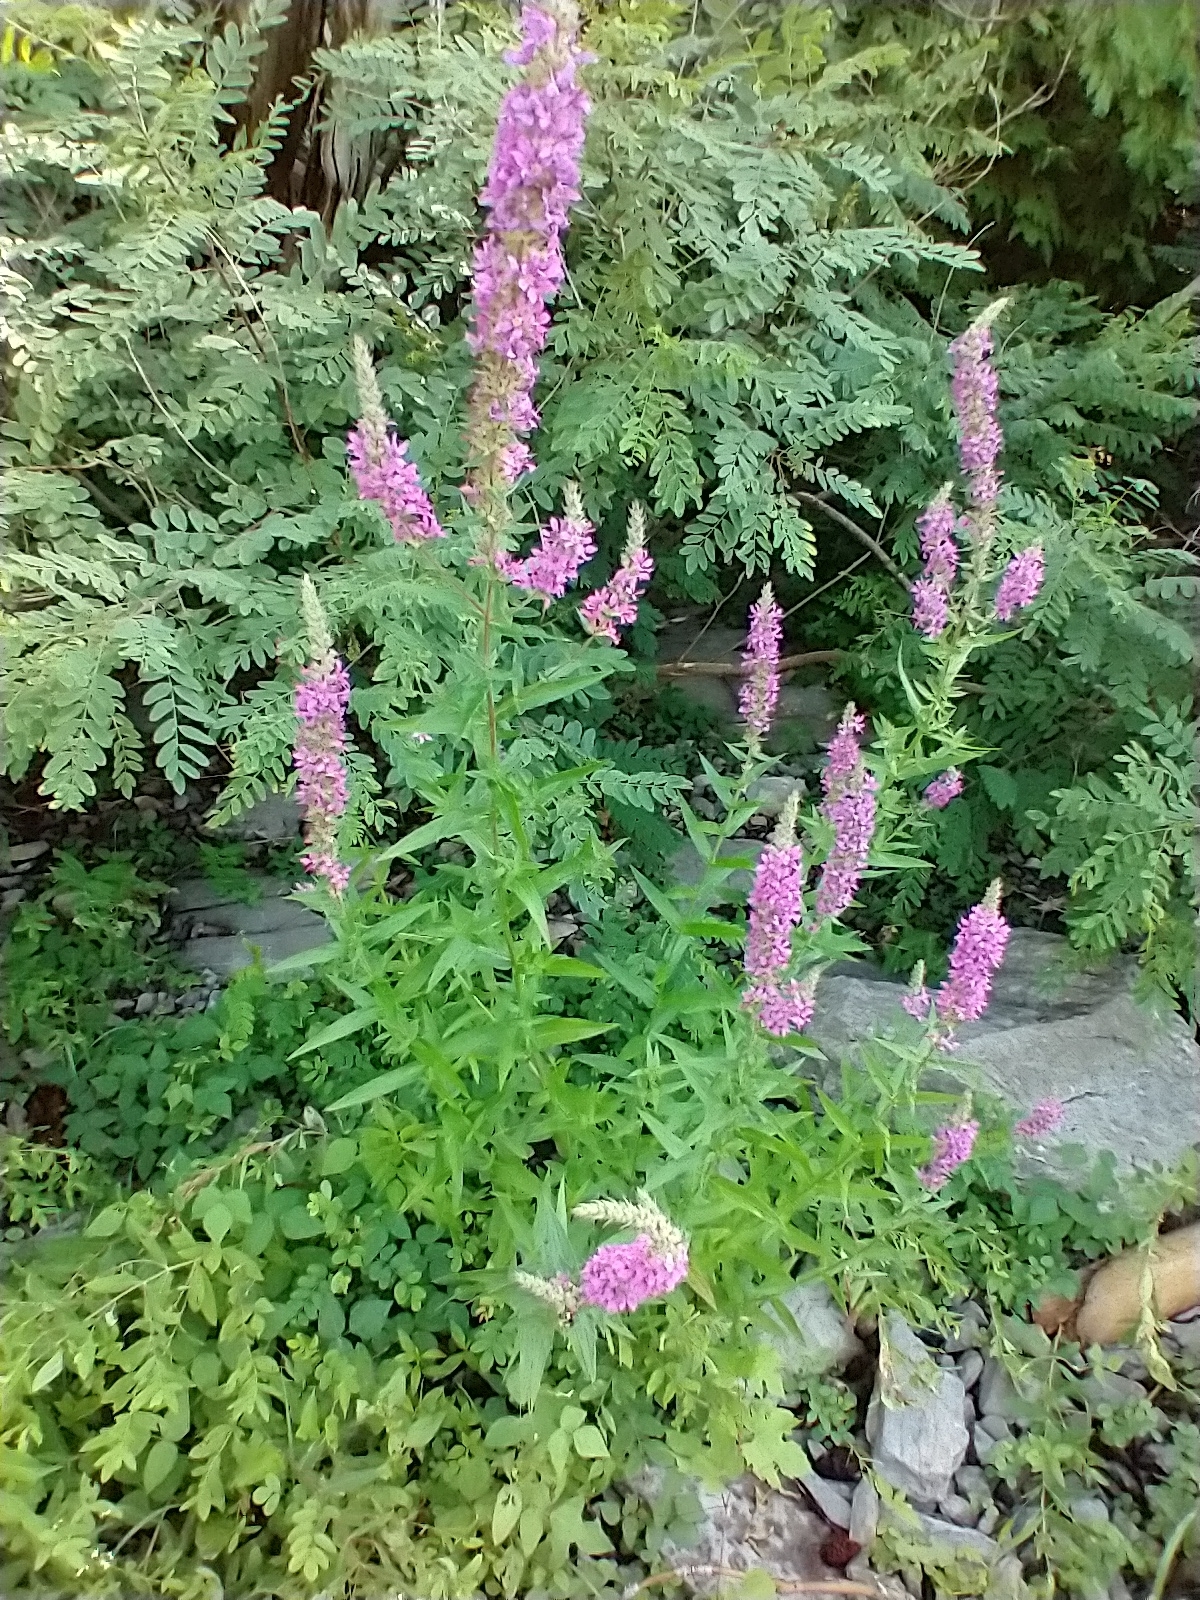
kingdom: Plantae
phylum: Tracheophyta
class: Magnoliopsida
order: Myrtales
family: Lythraceae
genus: Lythrum
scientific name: Lythrum salicaria
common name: Purple loosestrife
